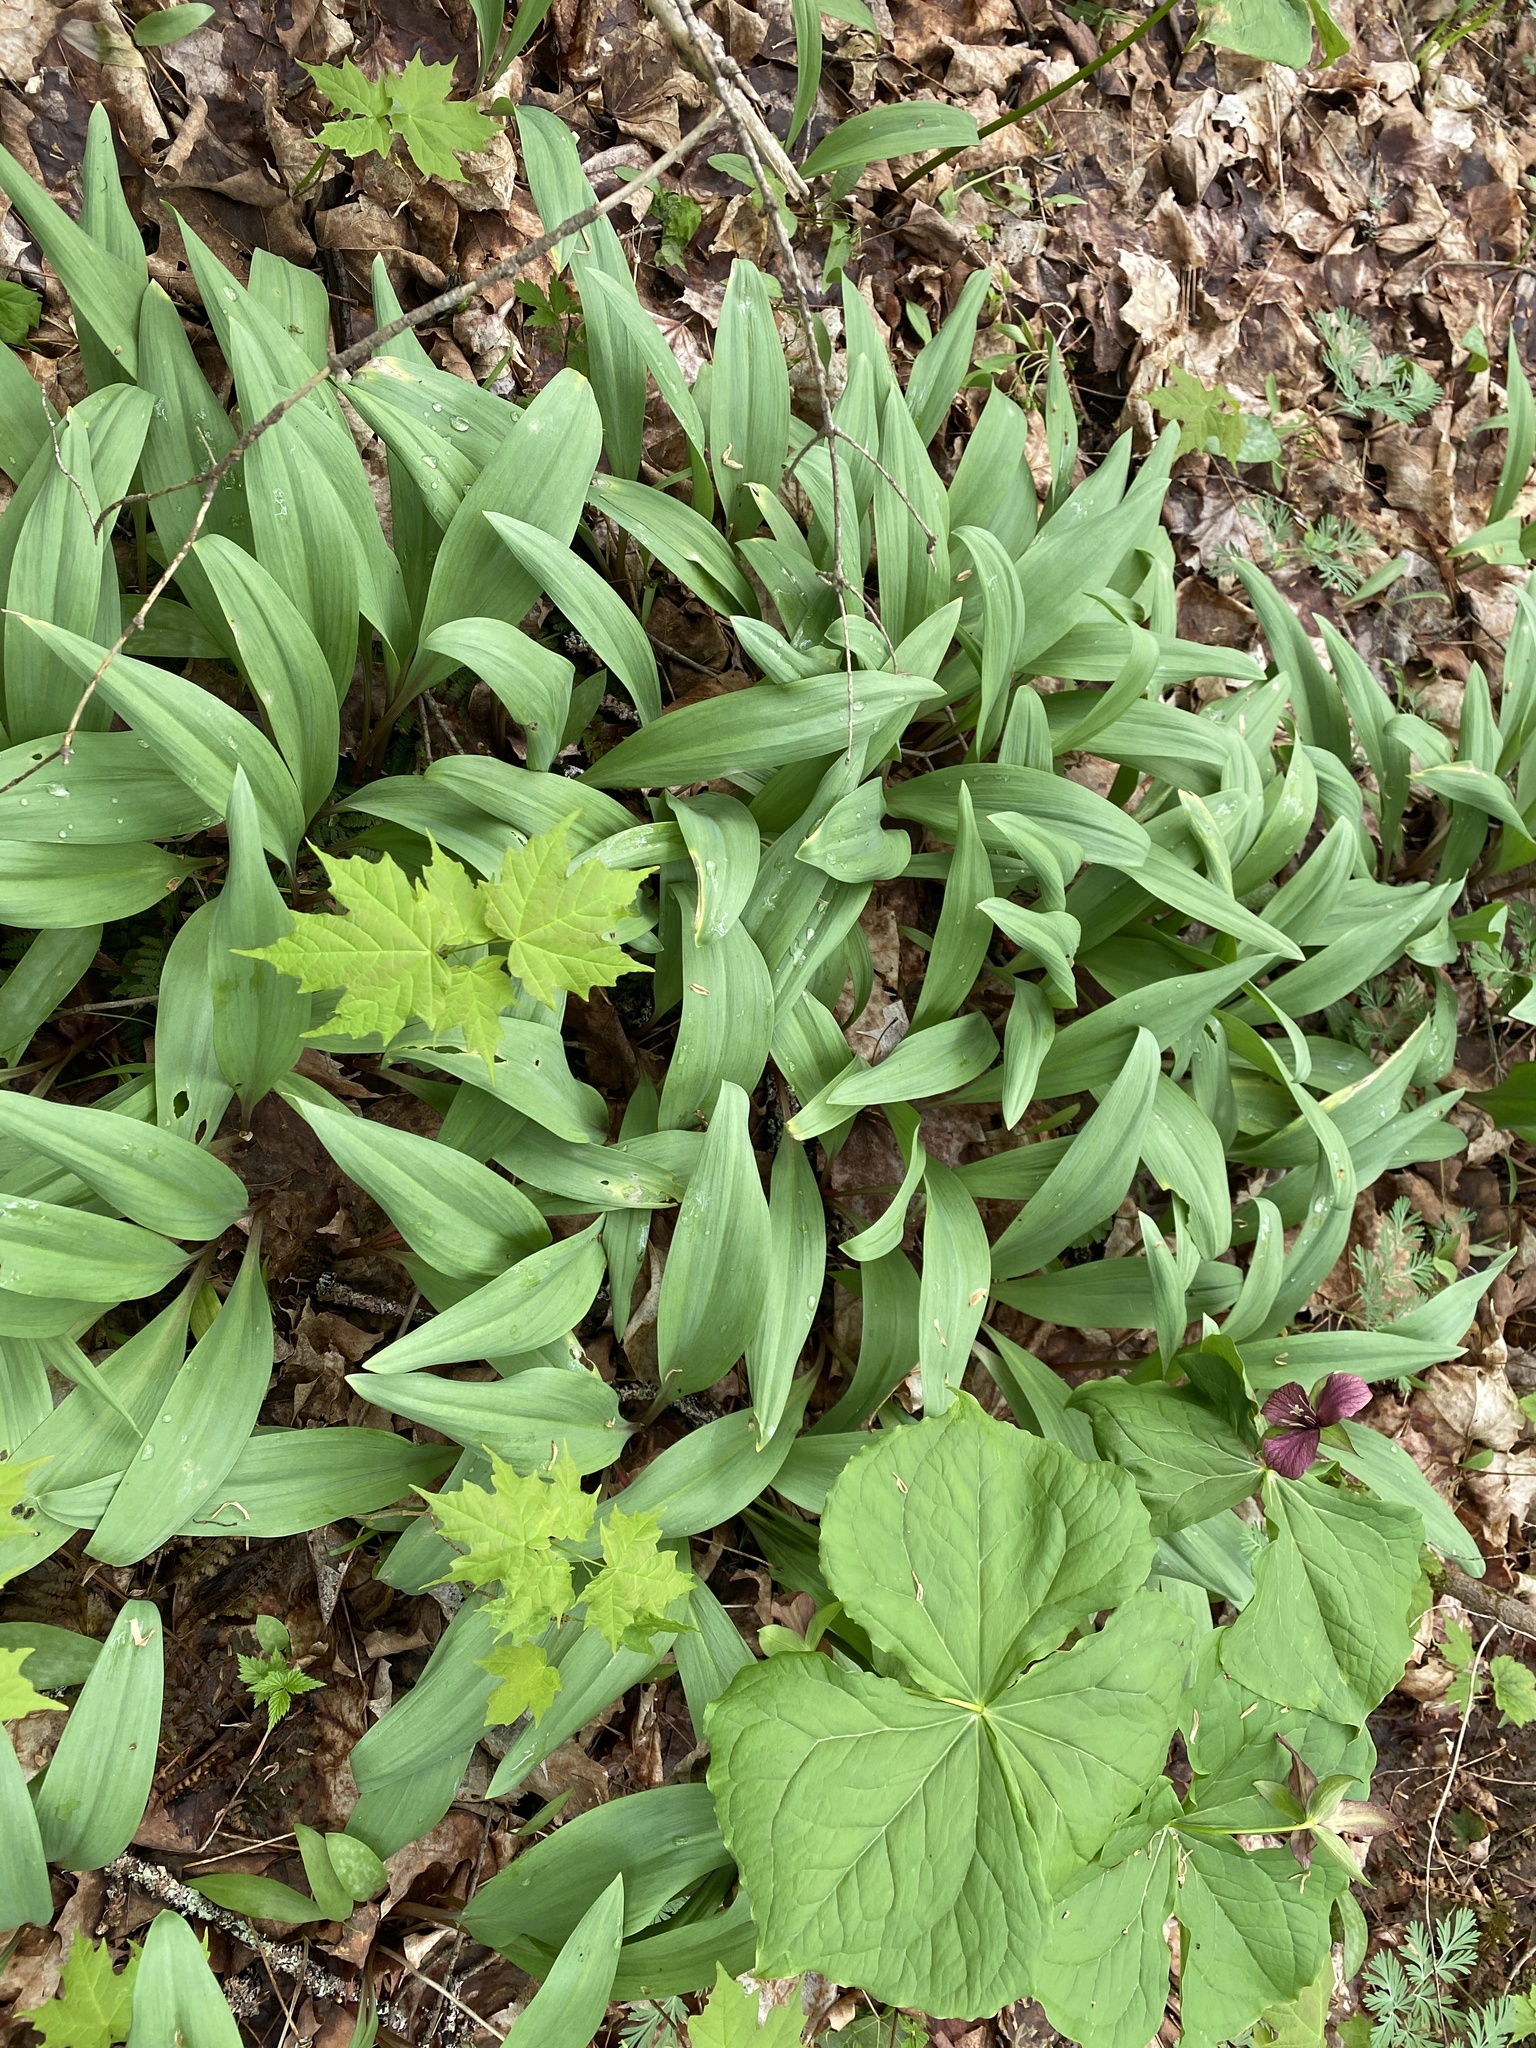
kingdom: Plantae
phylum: Tracheophyta
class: Liliopsida
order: Asparagales
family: Amaryllidaceae
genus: Allium
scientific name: Allium tricoccum
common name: Ramp
